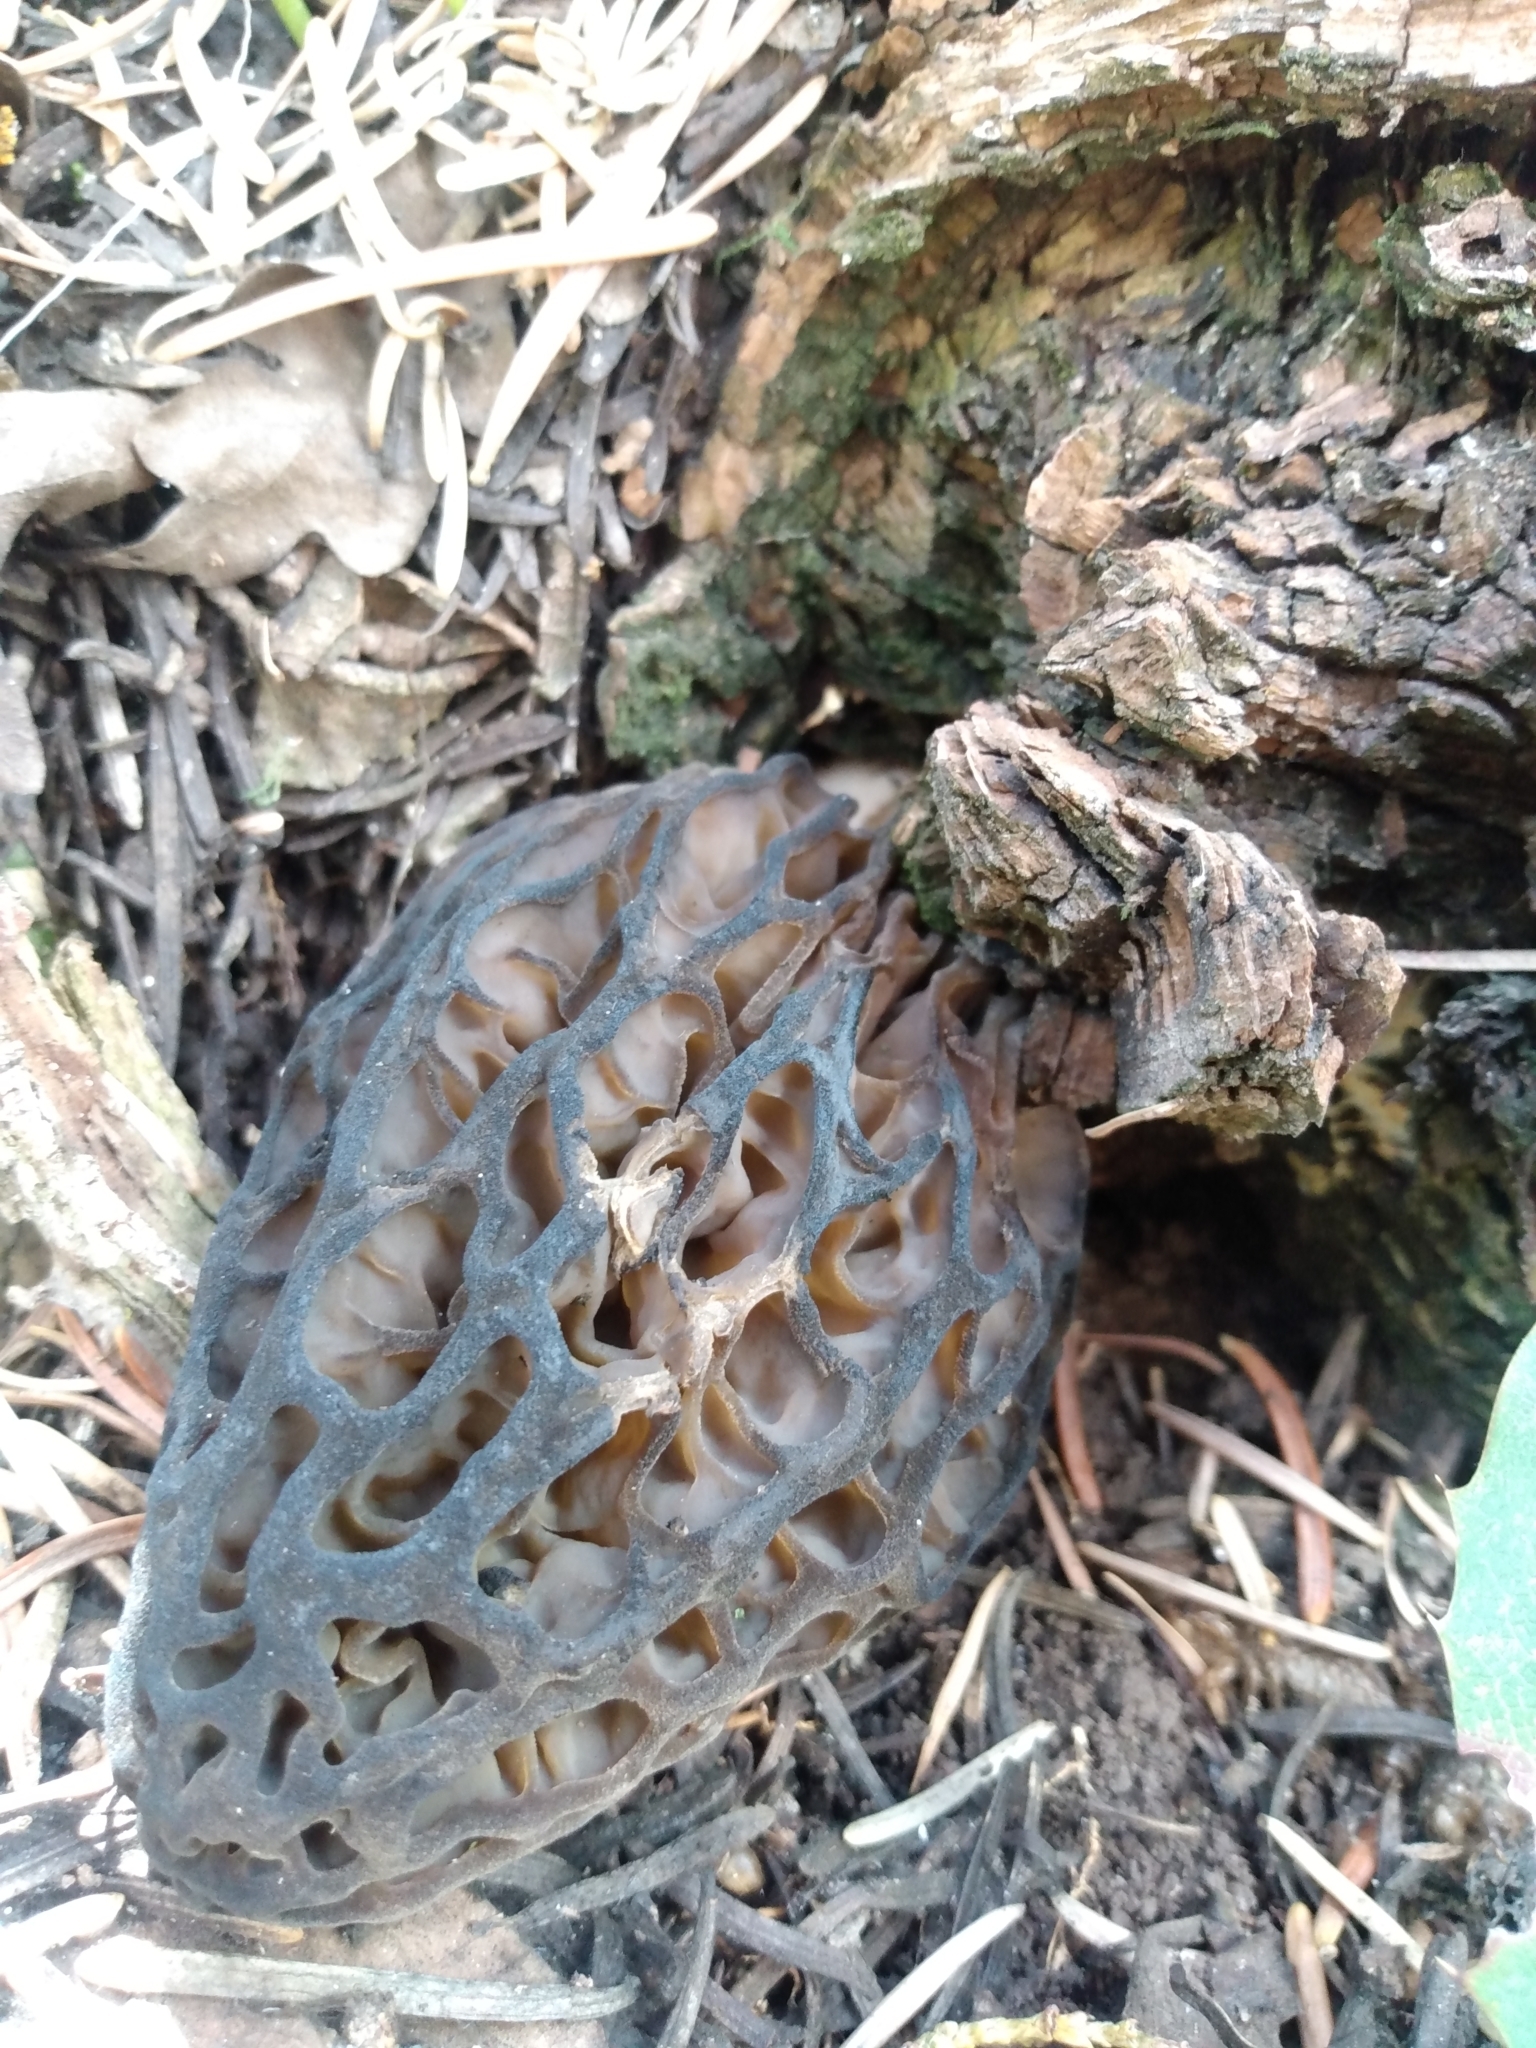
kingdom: Fungi
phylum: Ascomycota
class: Pezizomycetes
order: Pezizales
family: Morchellaceae
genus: Morchella
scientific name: Morchella snyderi
